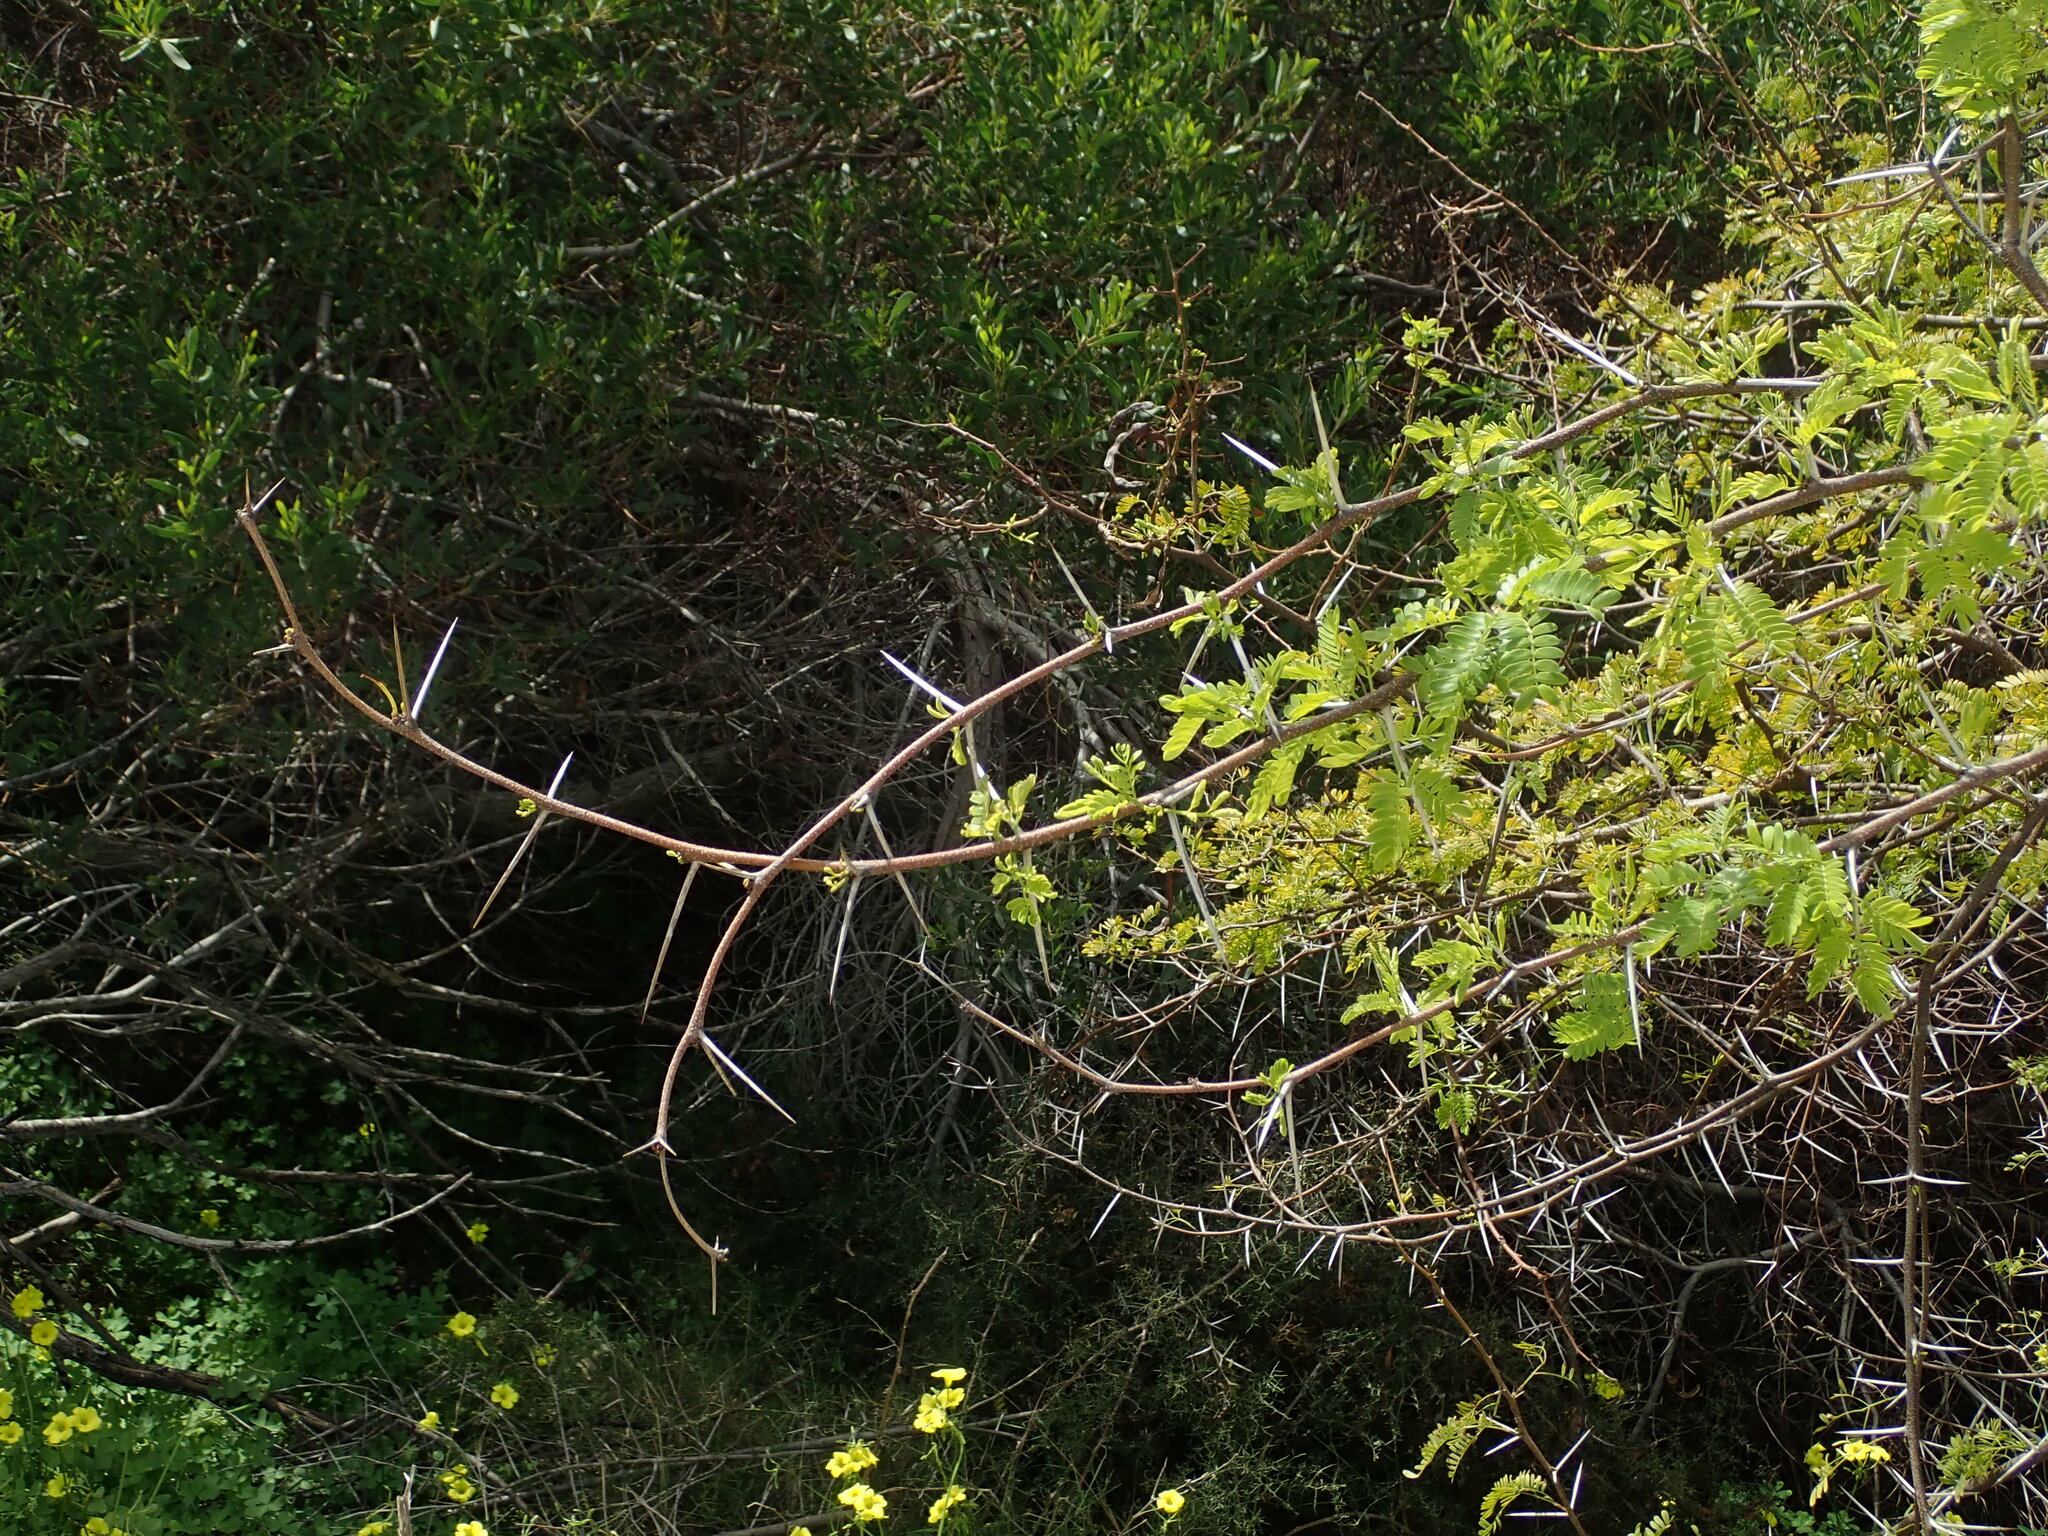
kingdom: Plantae
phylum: Tracheophyta
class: Magnoliopsida
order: Fabales
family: Fabaceae
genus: Vachellia
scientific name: Vachellia karroo
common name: Sweet thorn
